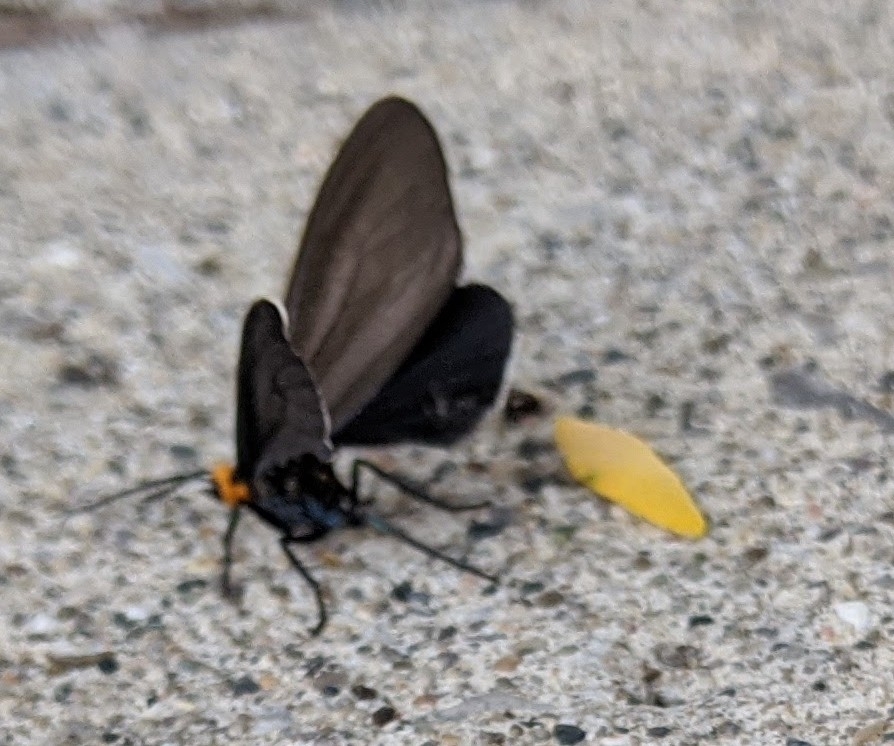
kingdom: Animalia
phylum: Arthropoda
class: Insecta
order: Lepidoptera
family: Erebidae
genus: Ctenucha
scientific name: Ctenucha virginica
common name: Virginia ctenucha moth
